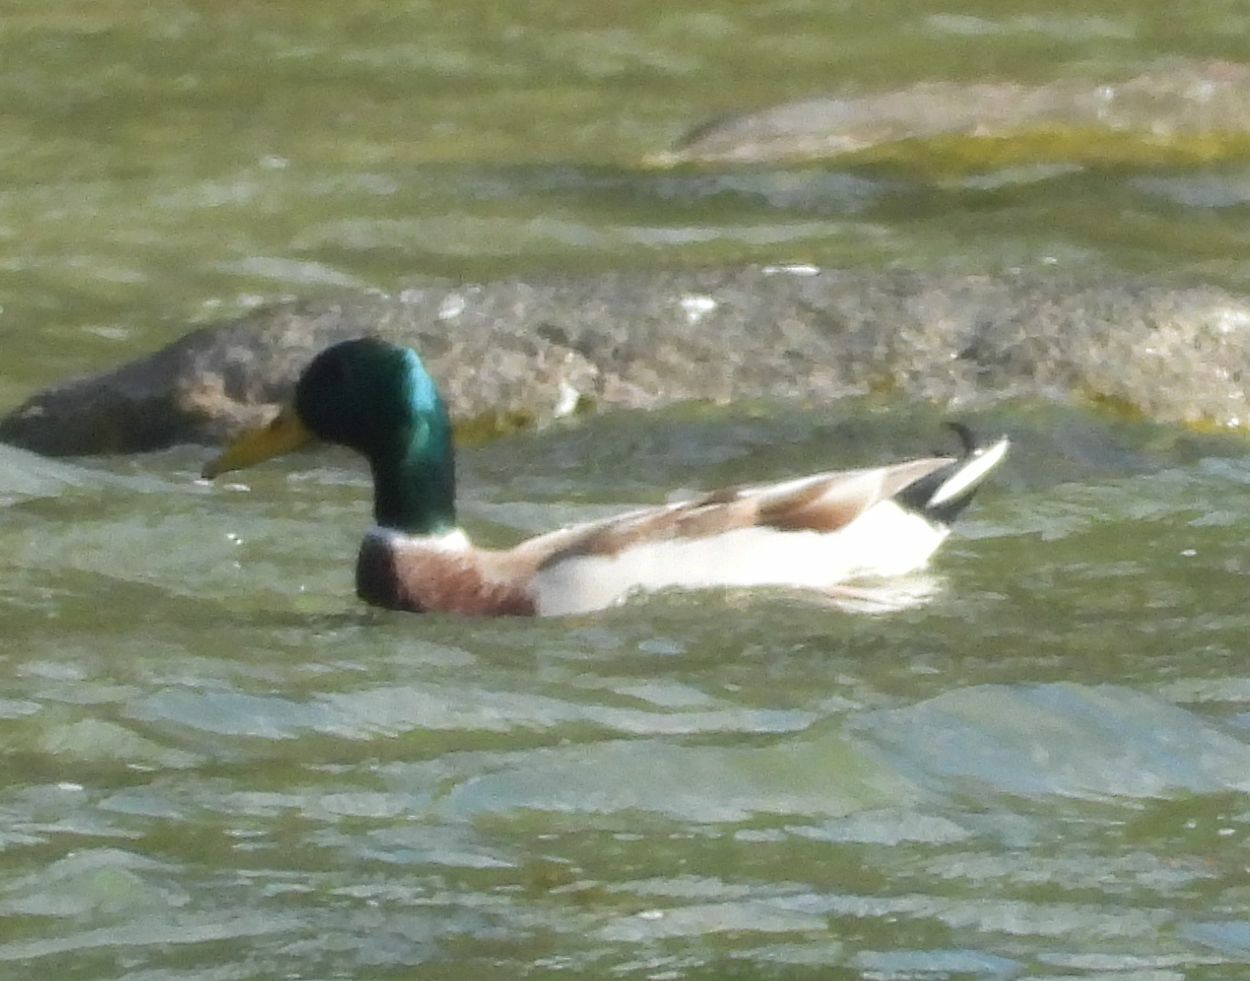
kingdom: Animalia
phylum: Chordata
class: Aves
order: Anseriformes
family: Anatidae
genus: Anas
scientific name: Anas platyrhynchos
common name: Mallard
